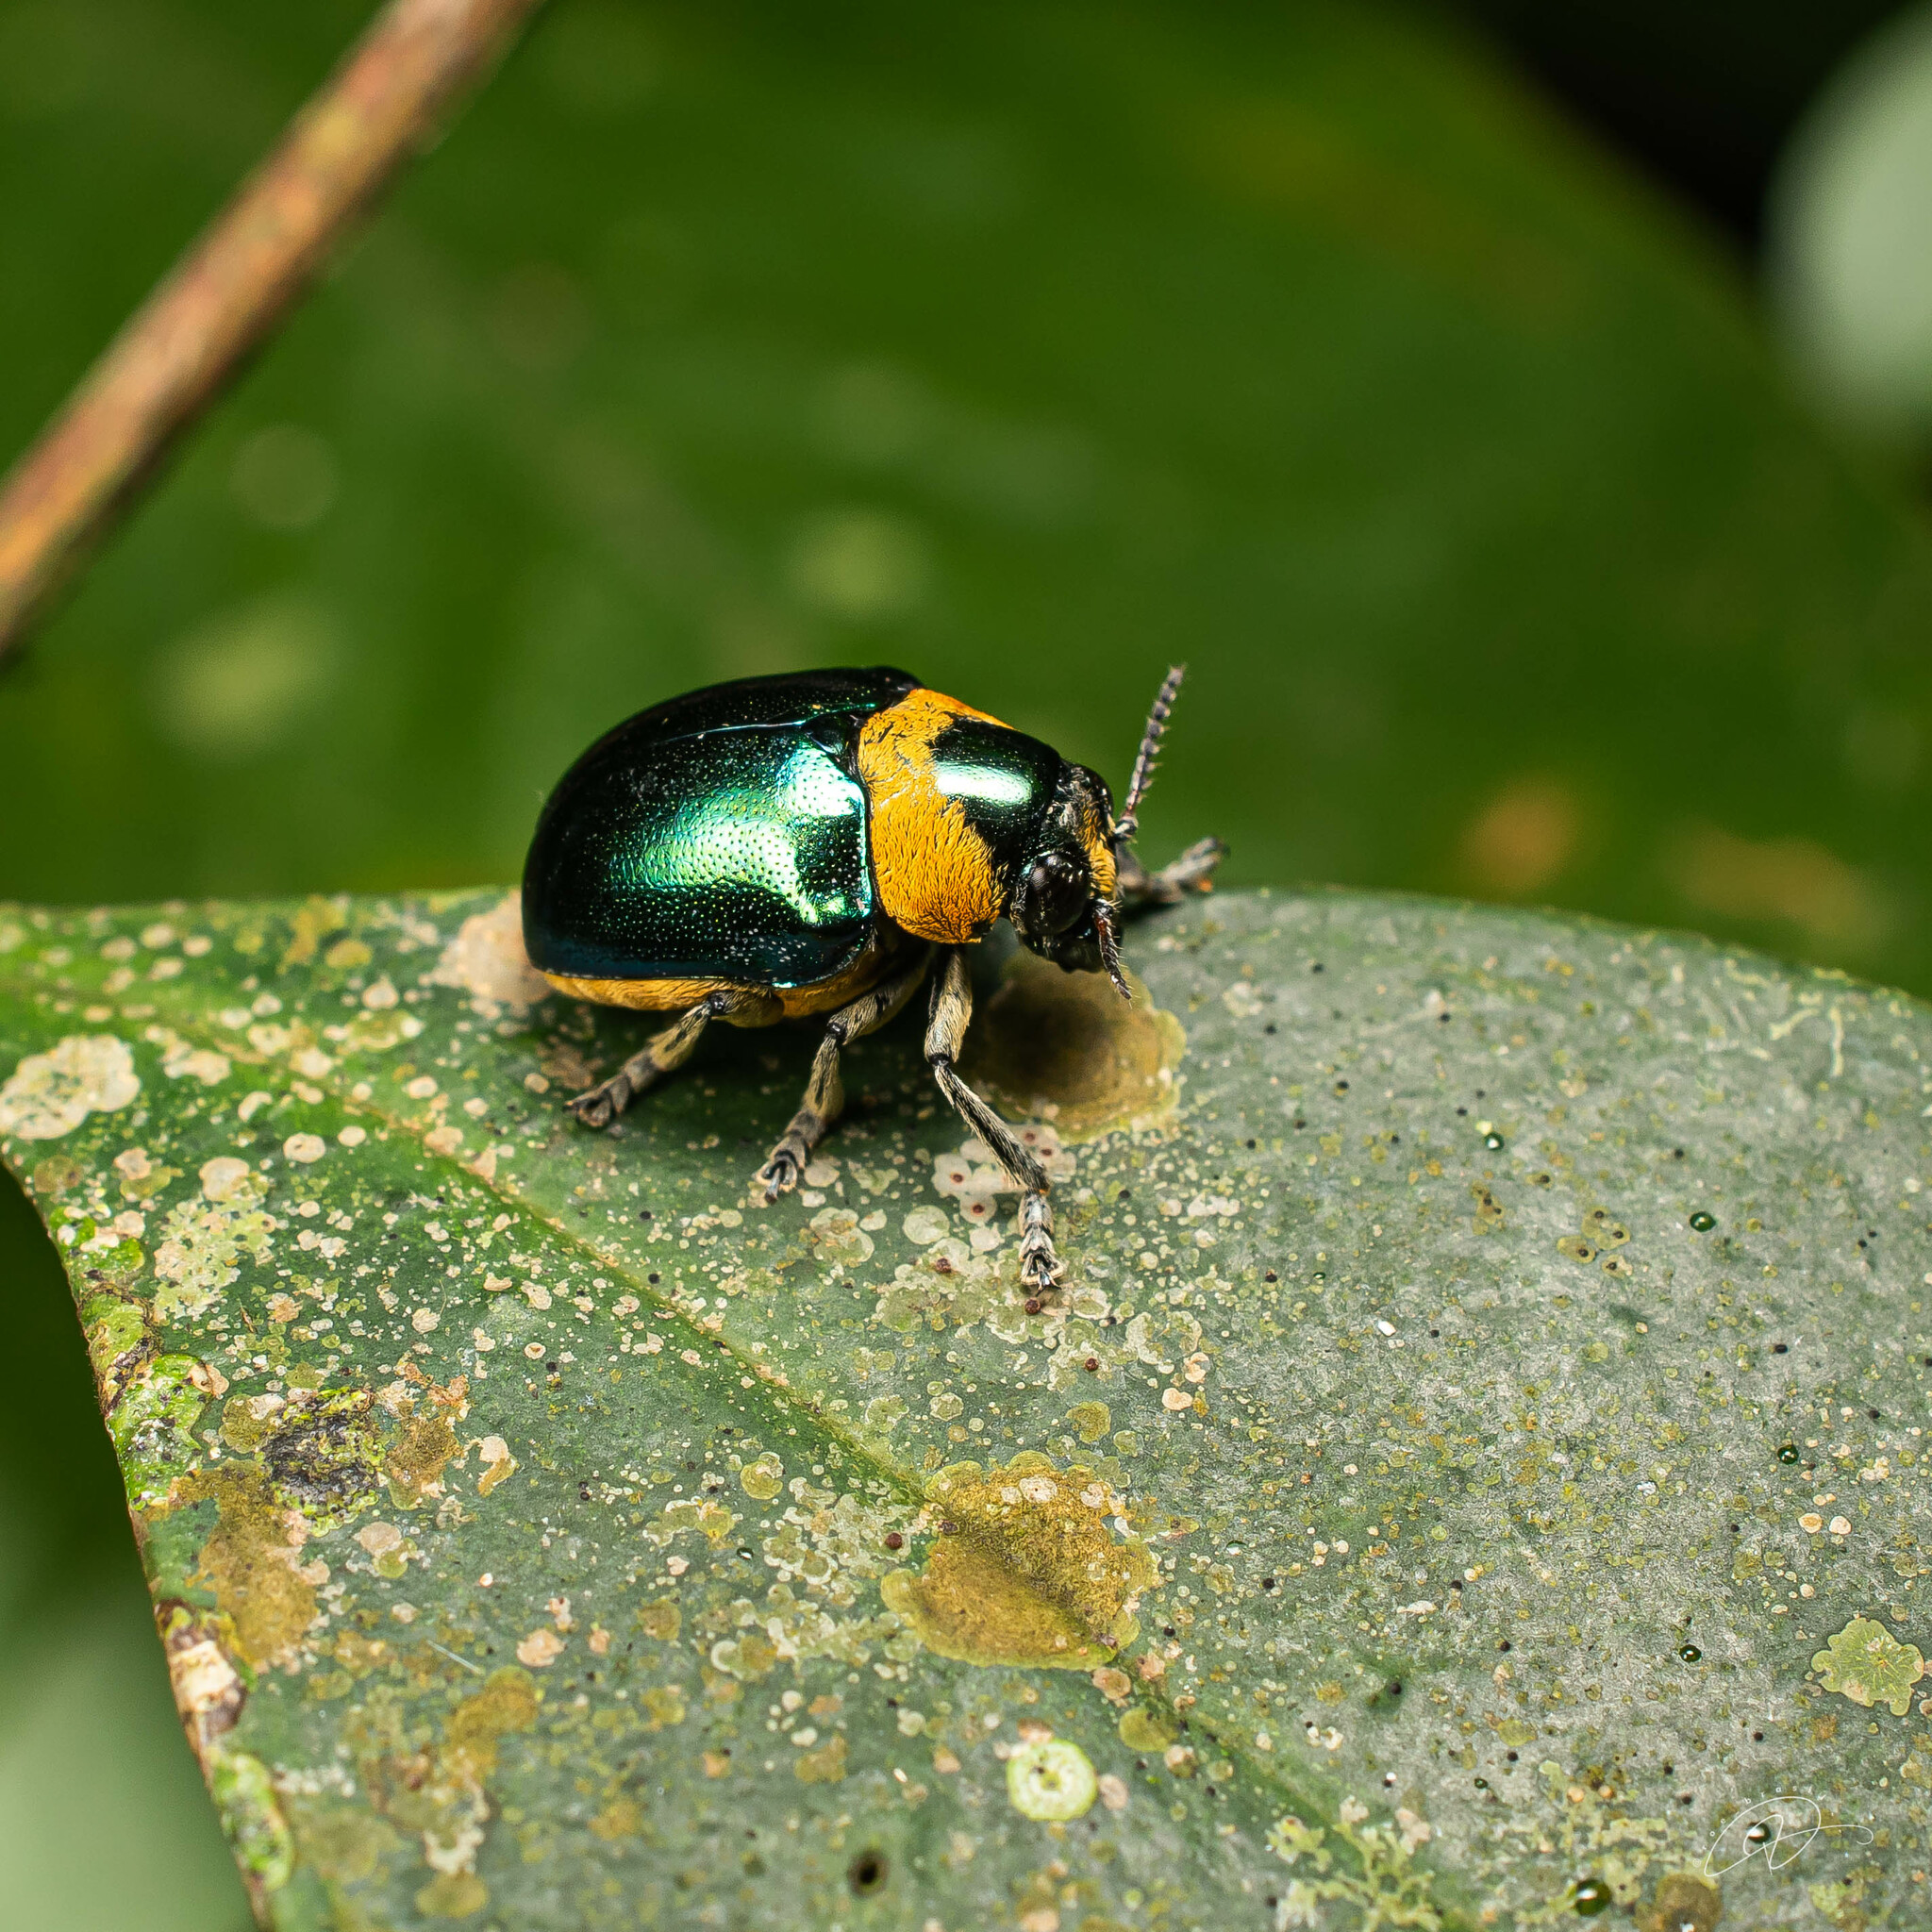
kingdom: Animalia
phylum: Arthropoda
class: Insecta
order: Coleoptera
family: Chrysomelidae
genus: Themesia
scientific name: Themesia
